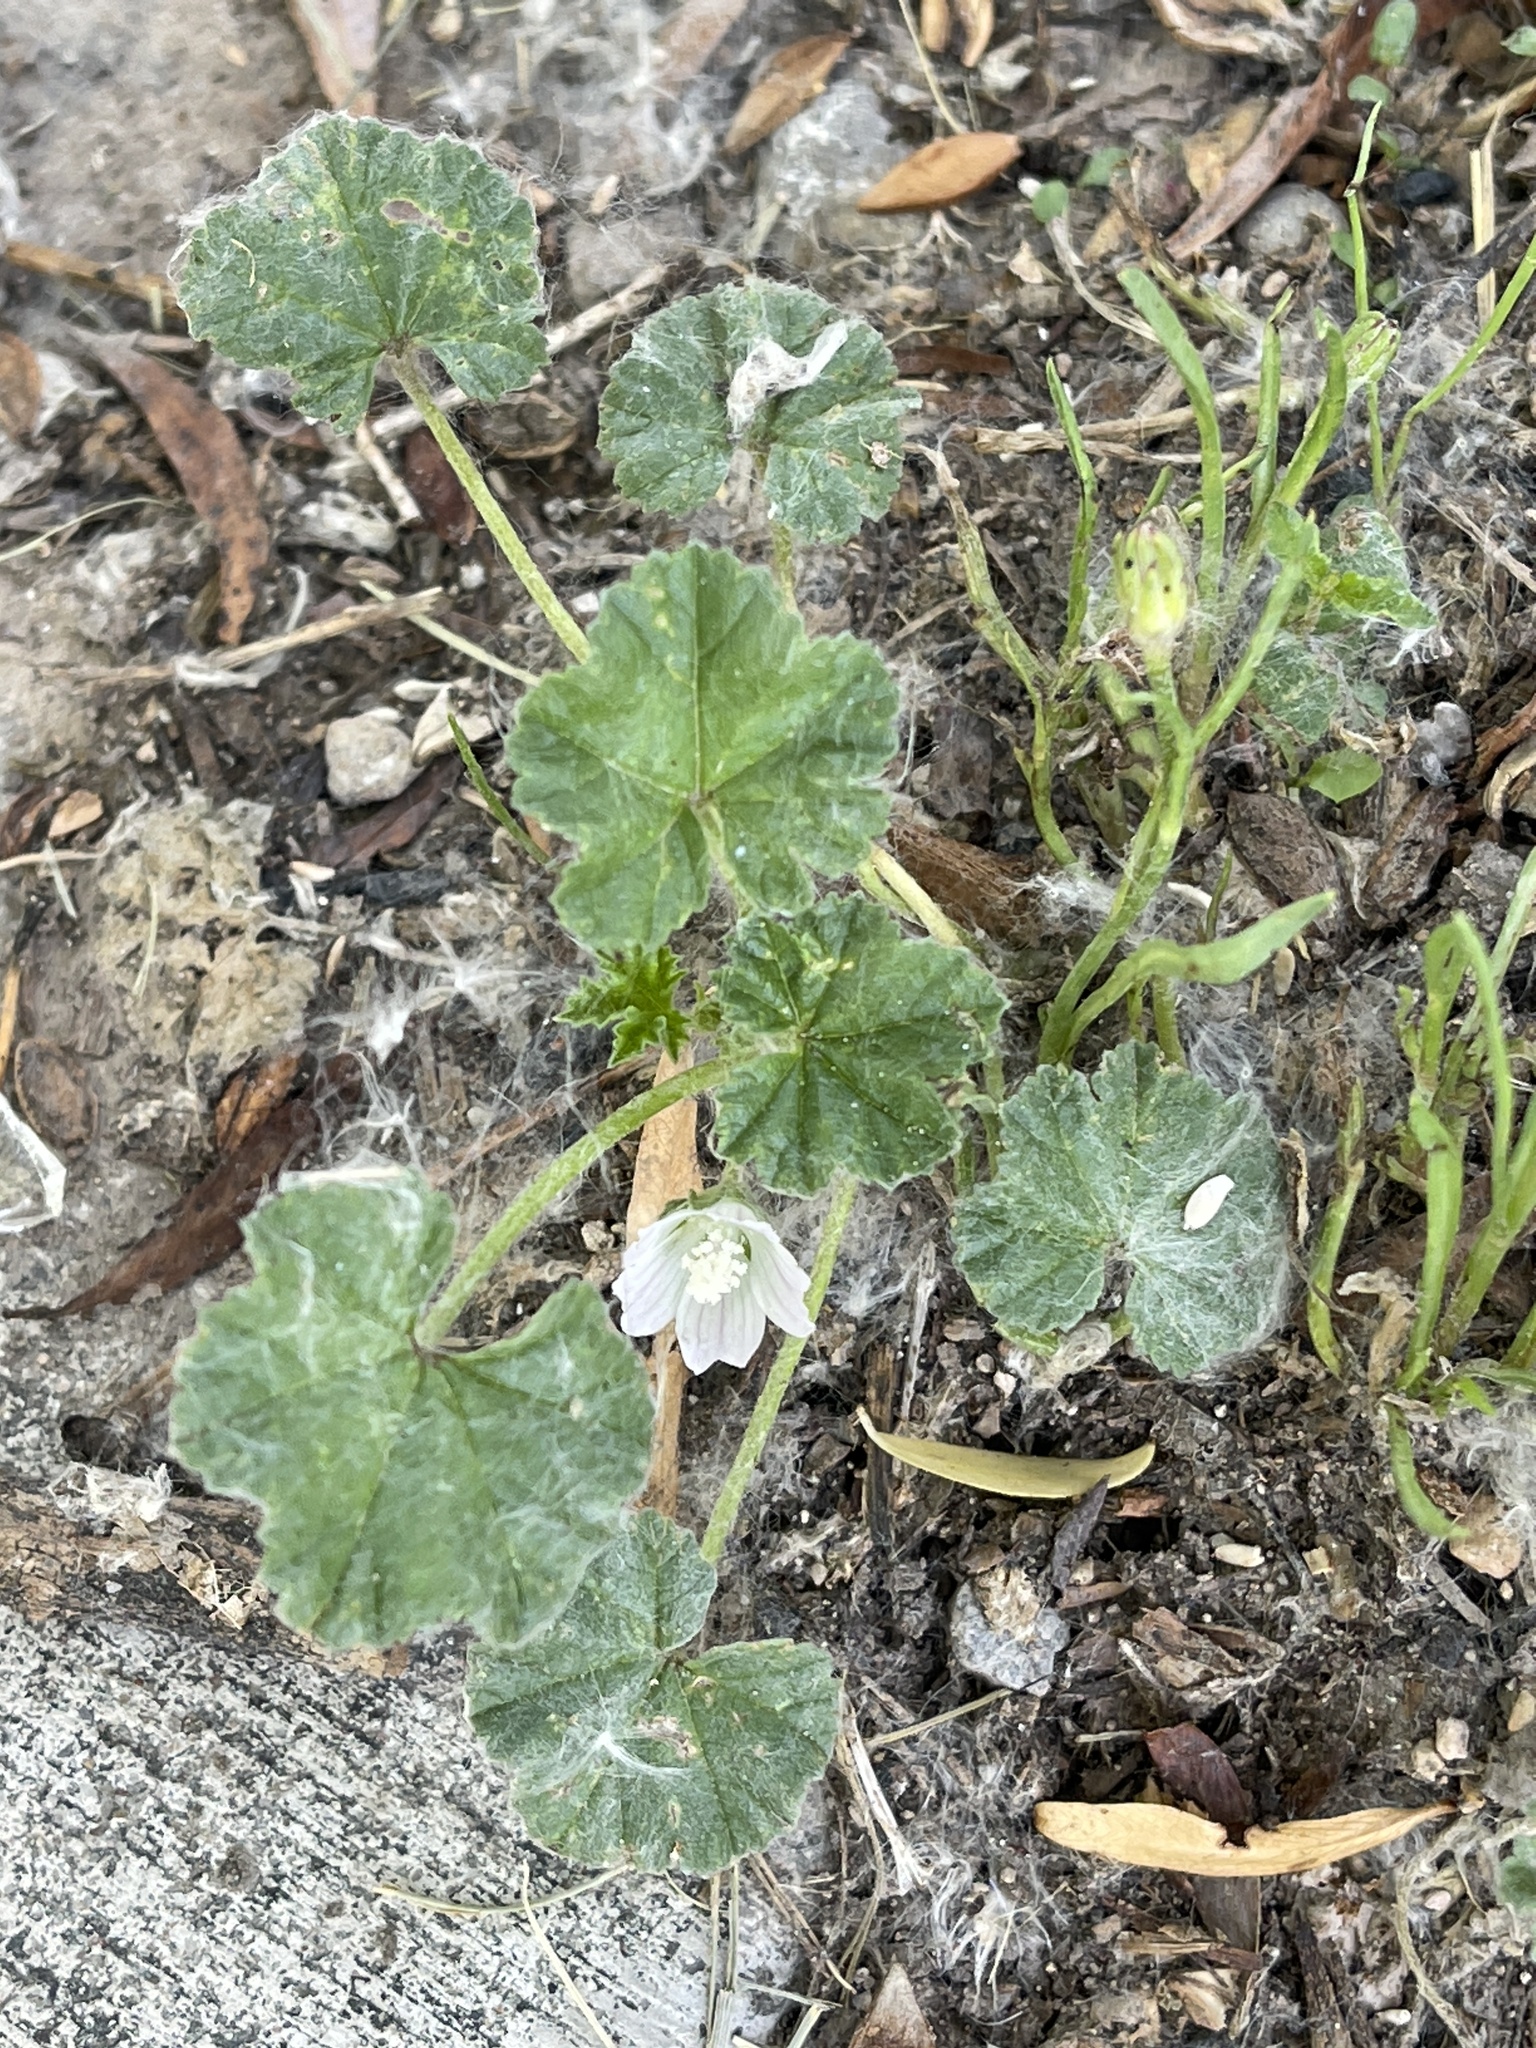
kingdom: Plantae
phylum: Tracheophyta
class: Magnoliopsida
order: Malvales
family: Malvaceae
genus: Malva
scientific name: Malva neglecta
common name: Common mallow
